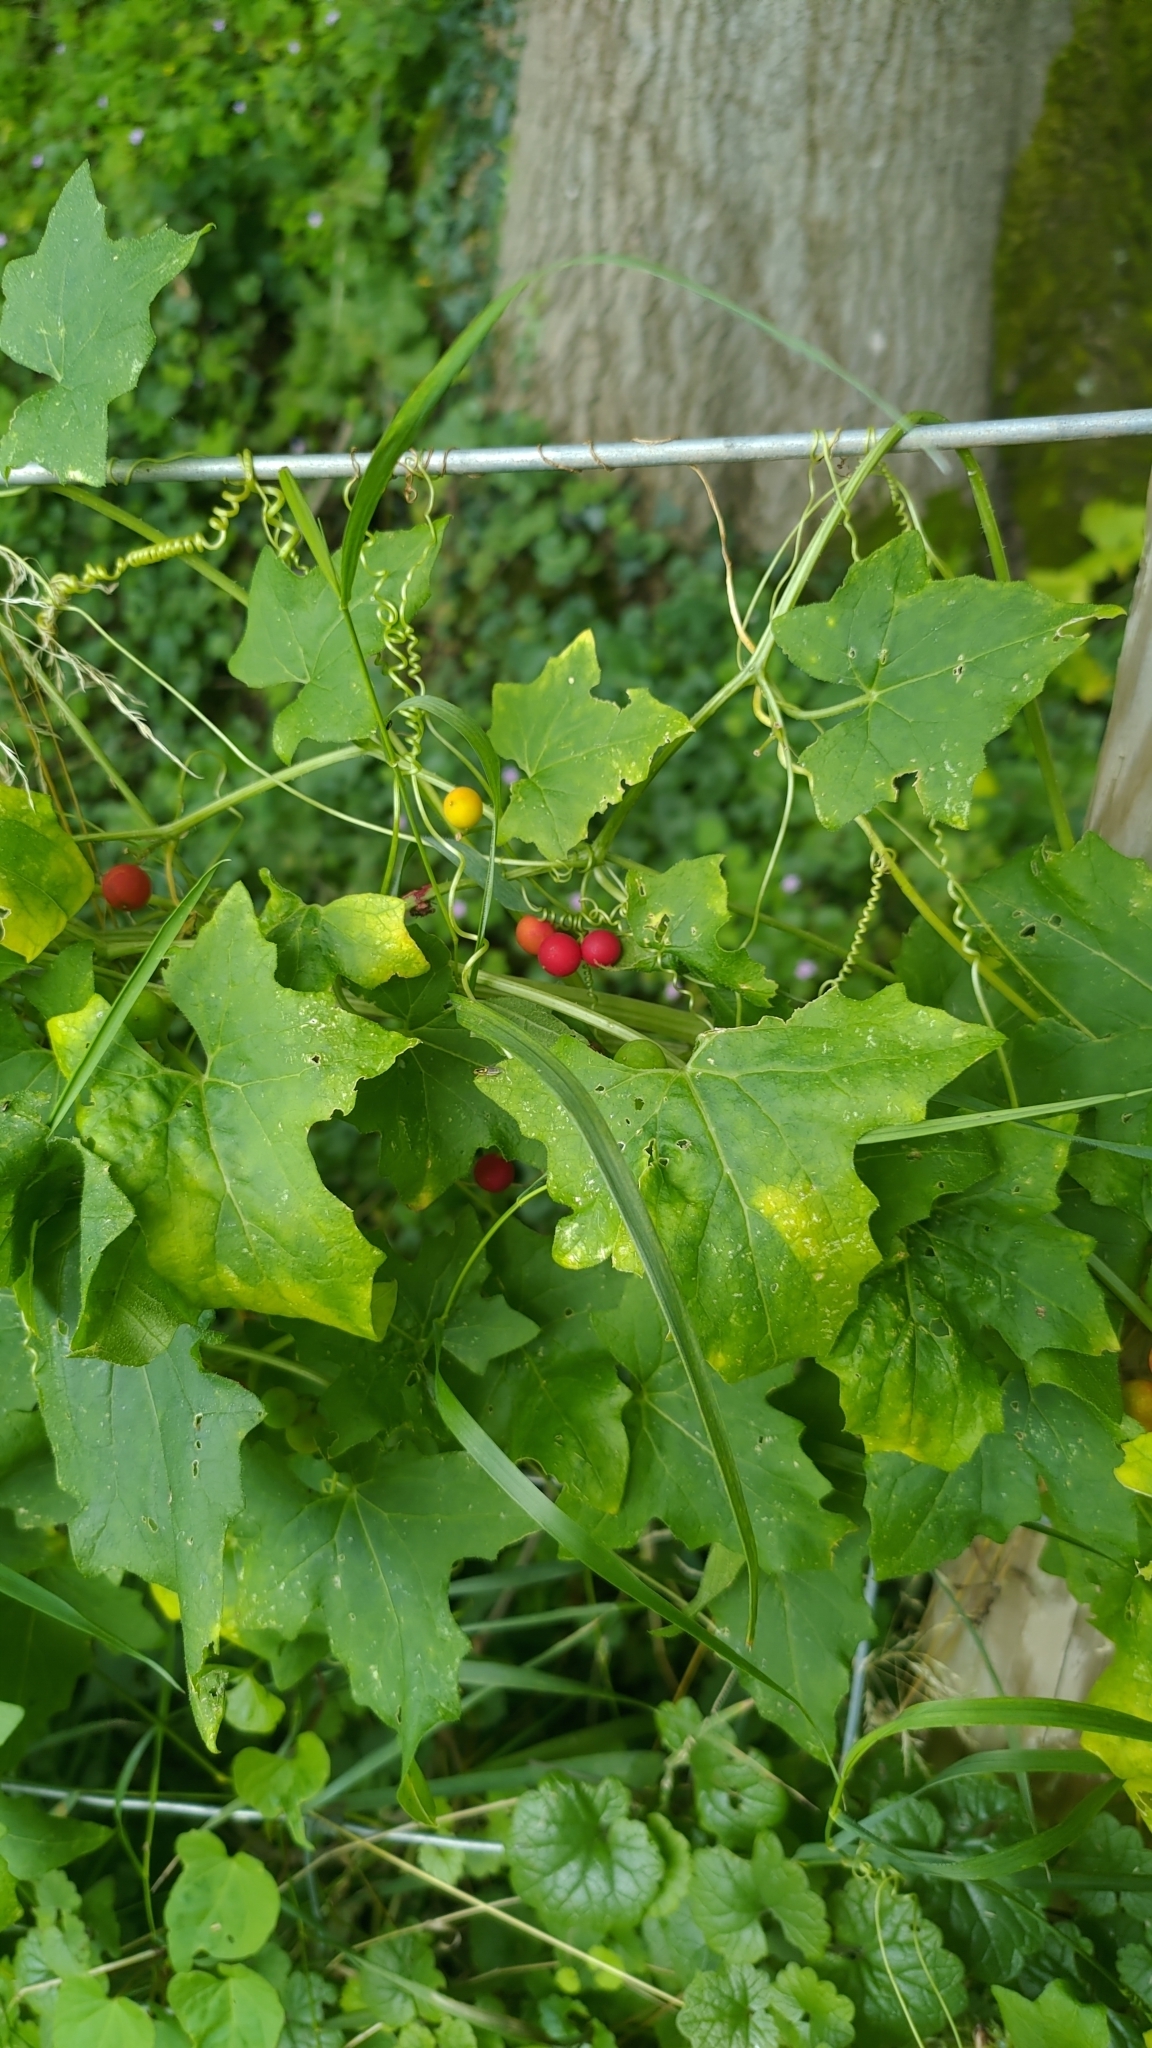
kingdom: Plantae
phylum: Tracheophyta
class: Magnoliopsida
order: Cucurbitales
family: Cucurbitaceae
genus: Bryonia
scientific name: Bryonia cretica
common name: Cretan bryony
